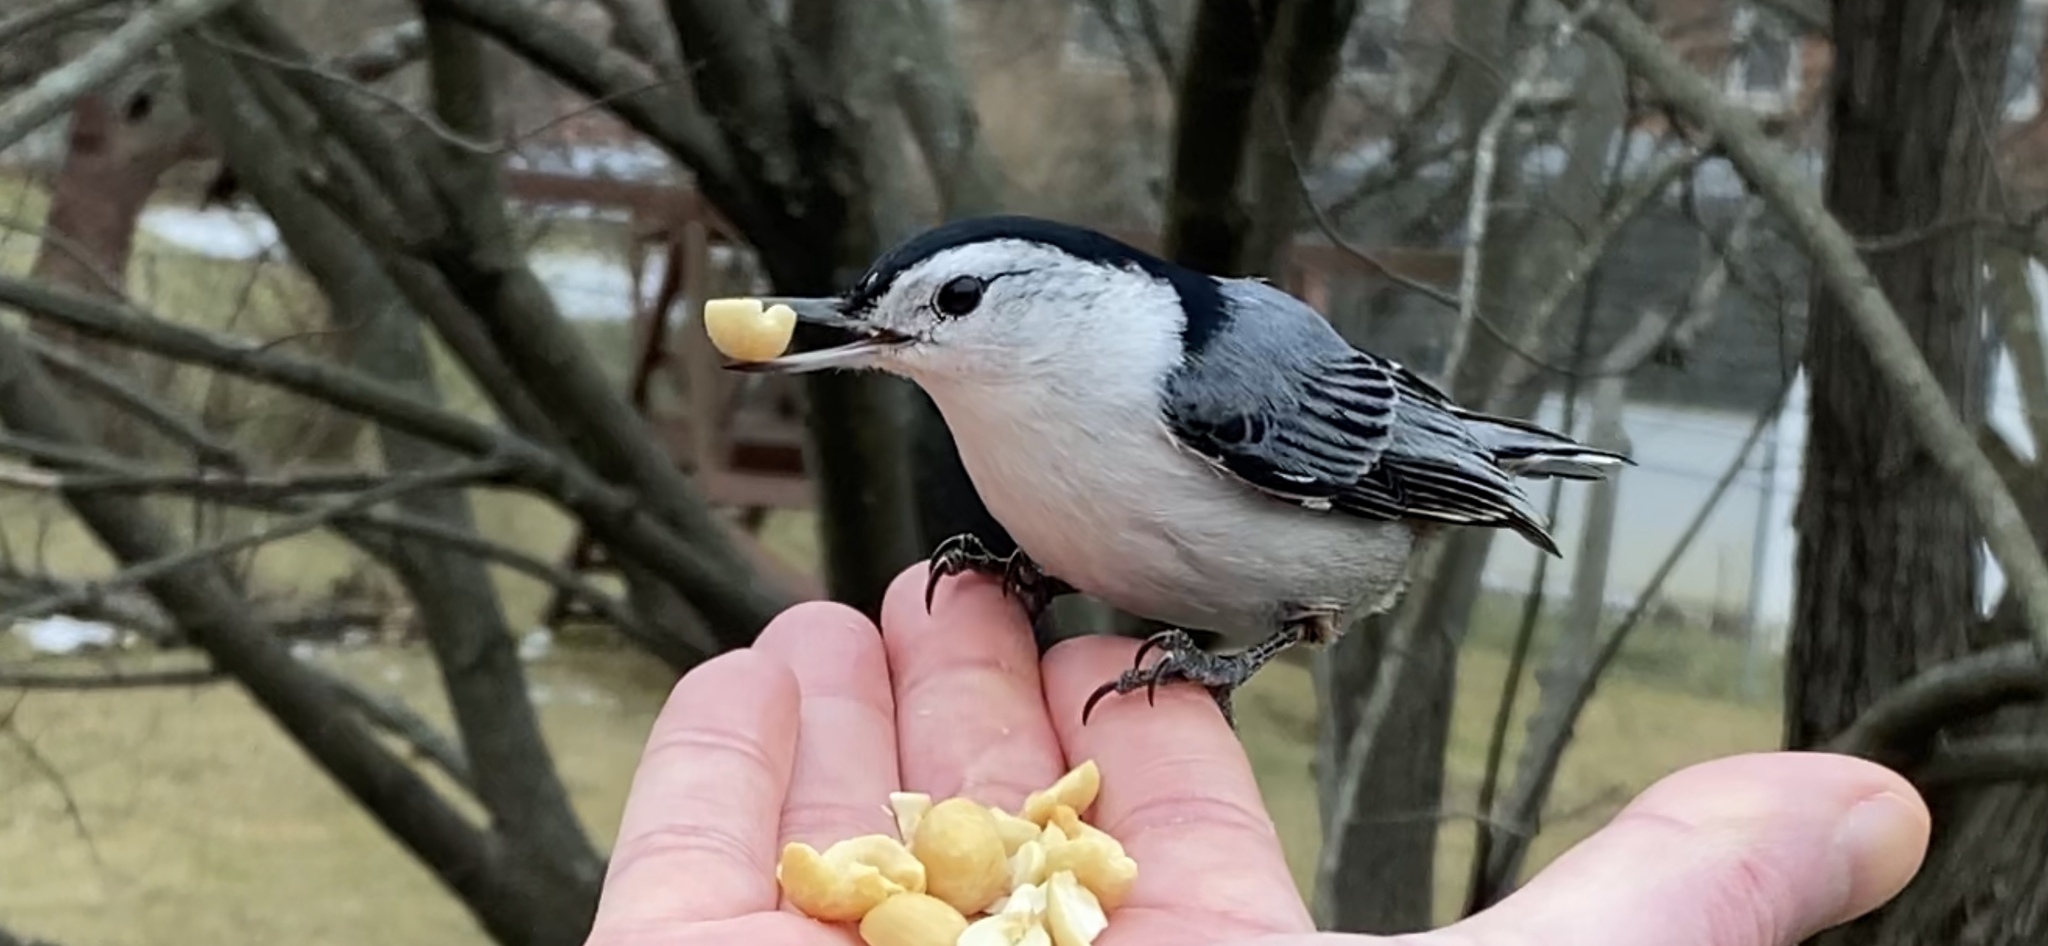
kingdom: Animalia
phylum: Chordata
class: Aves
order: Passeriformes
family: Sittidae
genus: Sitta
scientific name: Sitta carolinensis
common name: White-breasted nuthatch
